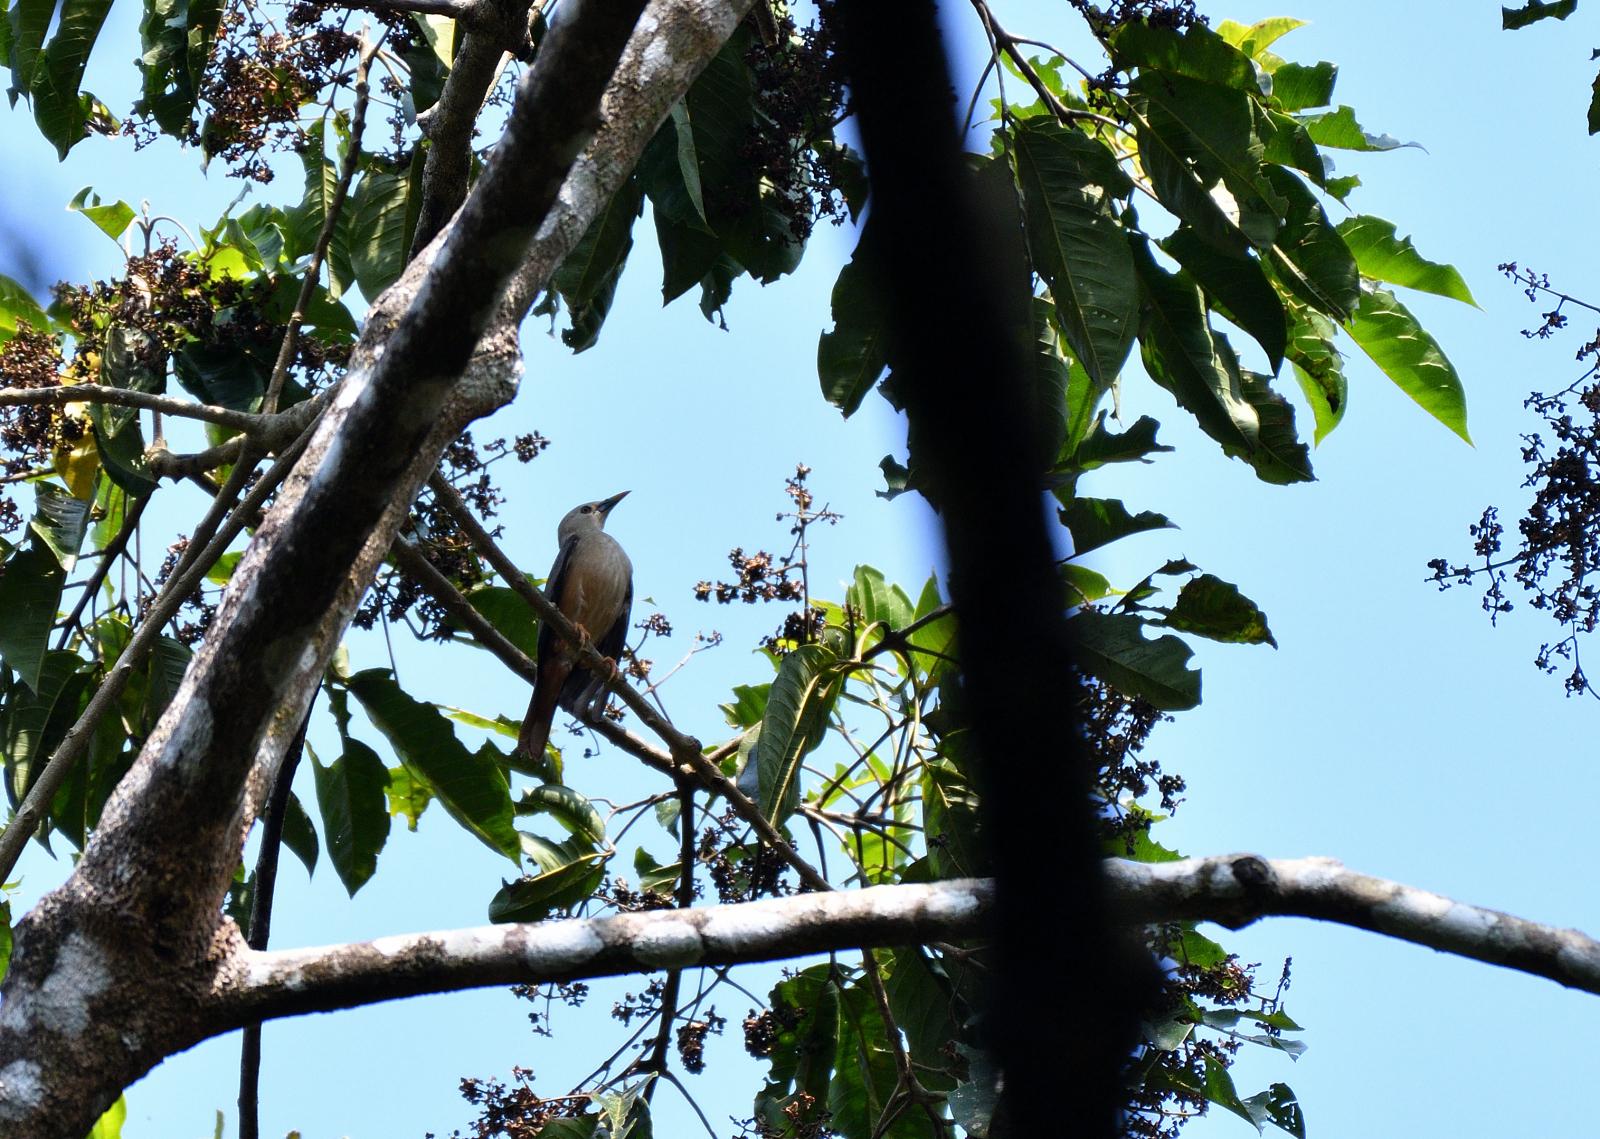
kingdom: Animalia
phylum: Chordata
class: Aves
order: Passeriformes
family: Sturnidae
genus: Sturnia
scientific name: Sturnia malabarica
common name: Chestnut-tailed starling
